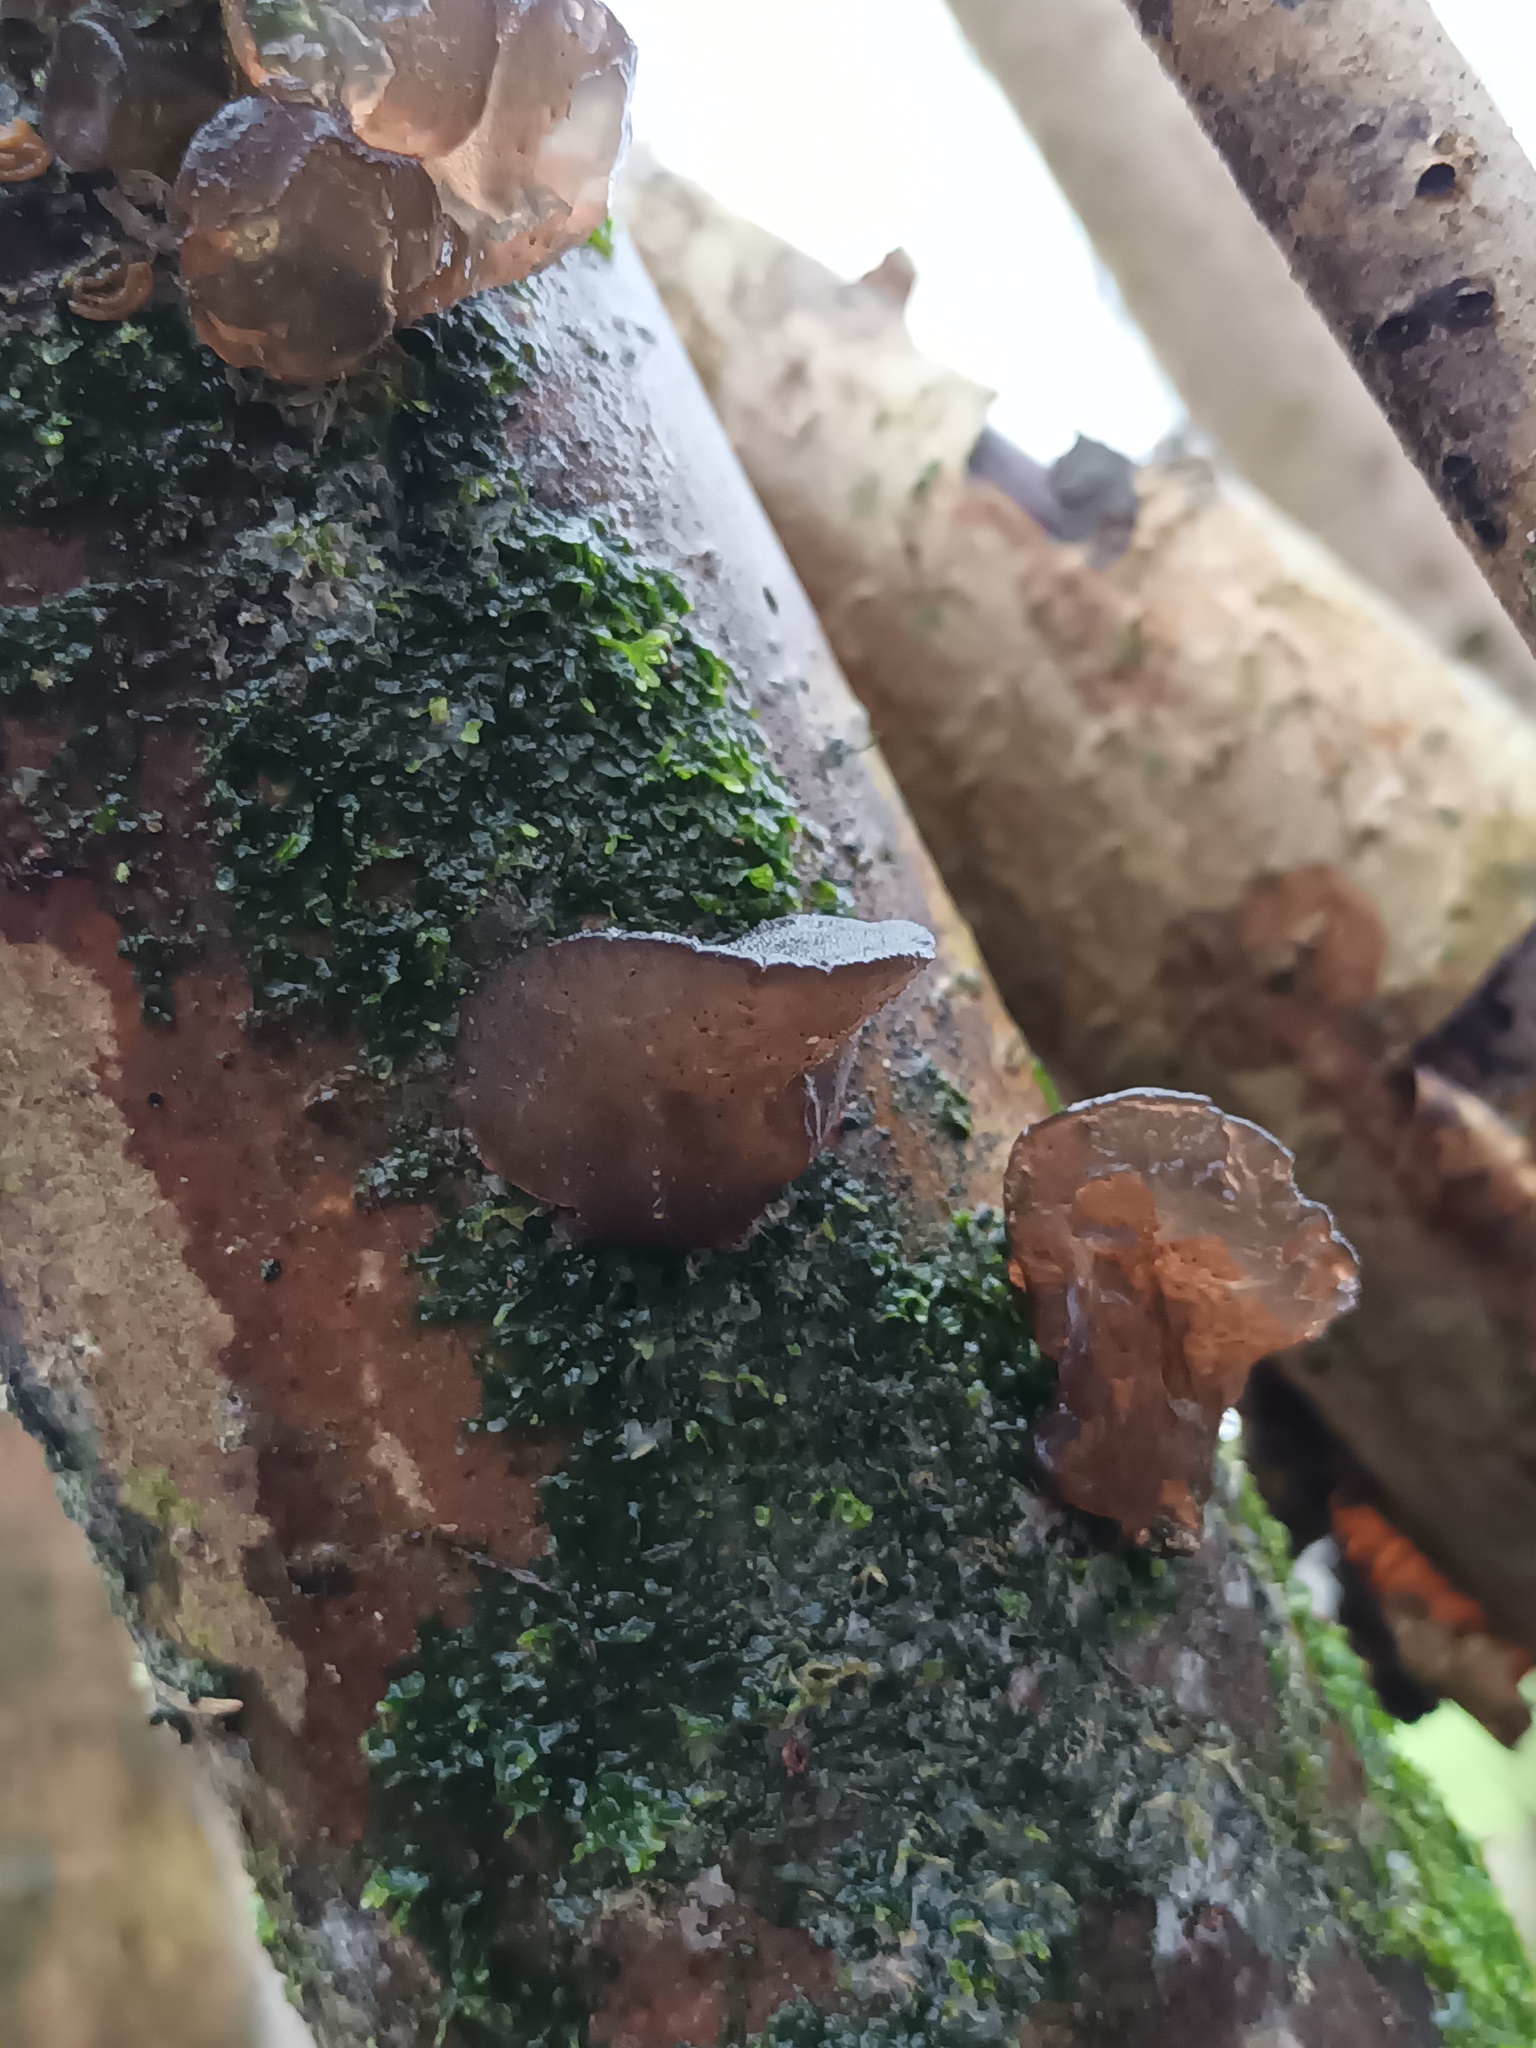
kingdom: Fungi
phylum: Basidiomycota
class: Agaricomycetes
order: Auriculariales
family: Auriculariaceae
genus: Exidia
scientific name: Exidia glandulosa
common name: Witches' butter
